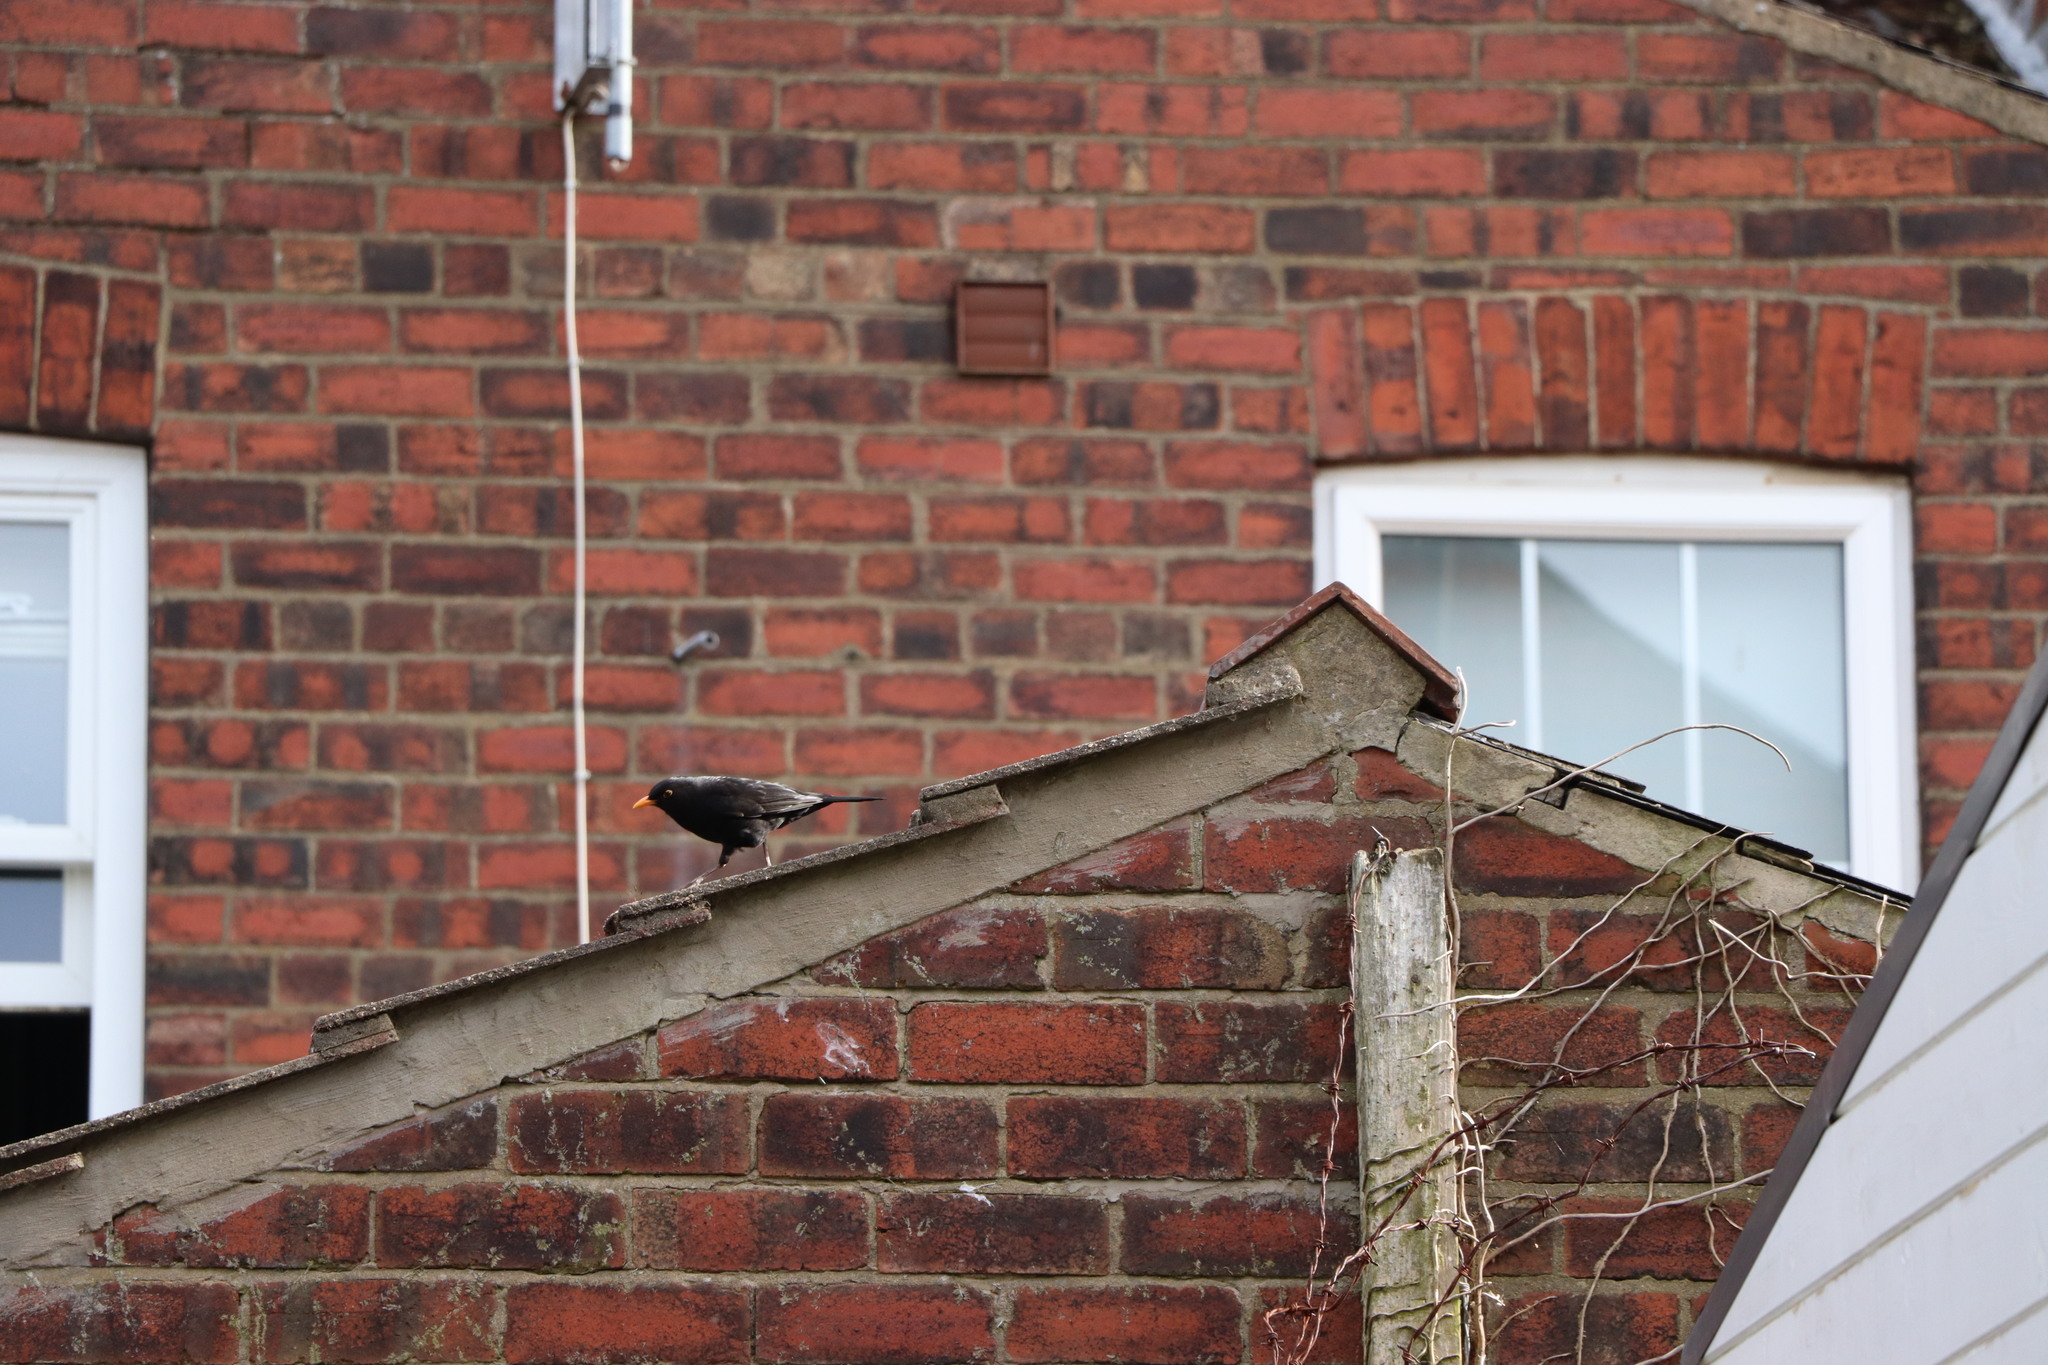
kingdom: Animalia
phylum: Chordata
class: Aves
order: Passeriformes
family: Turdidae
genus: Turdus
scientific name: Turdus merula
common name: Common blackbird
